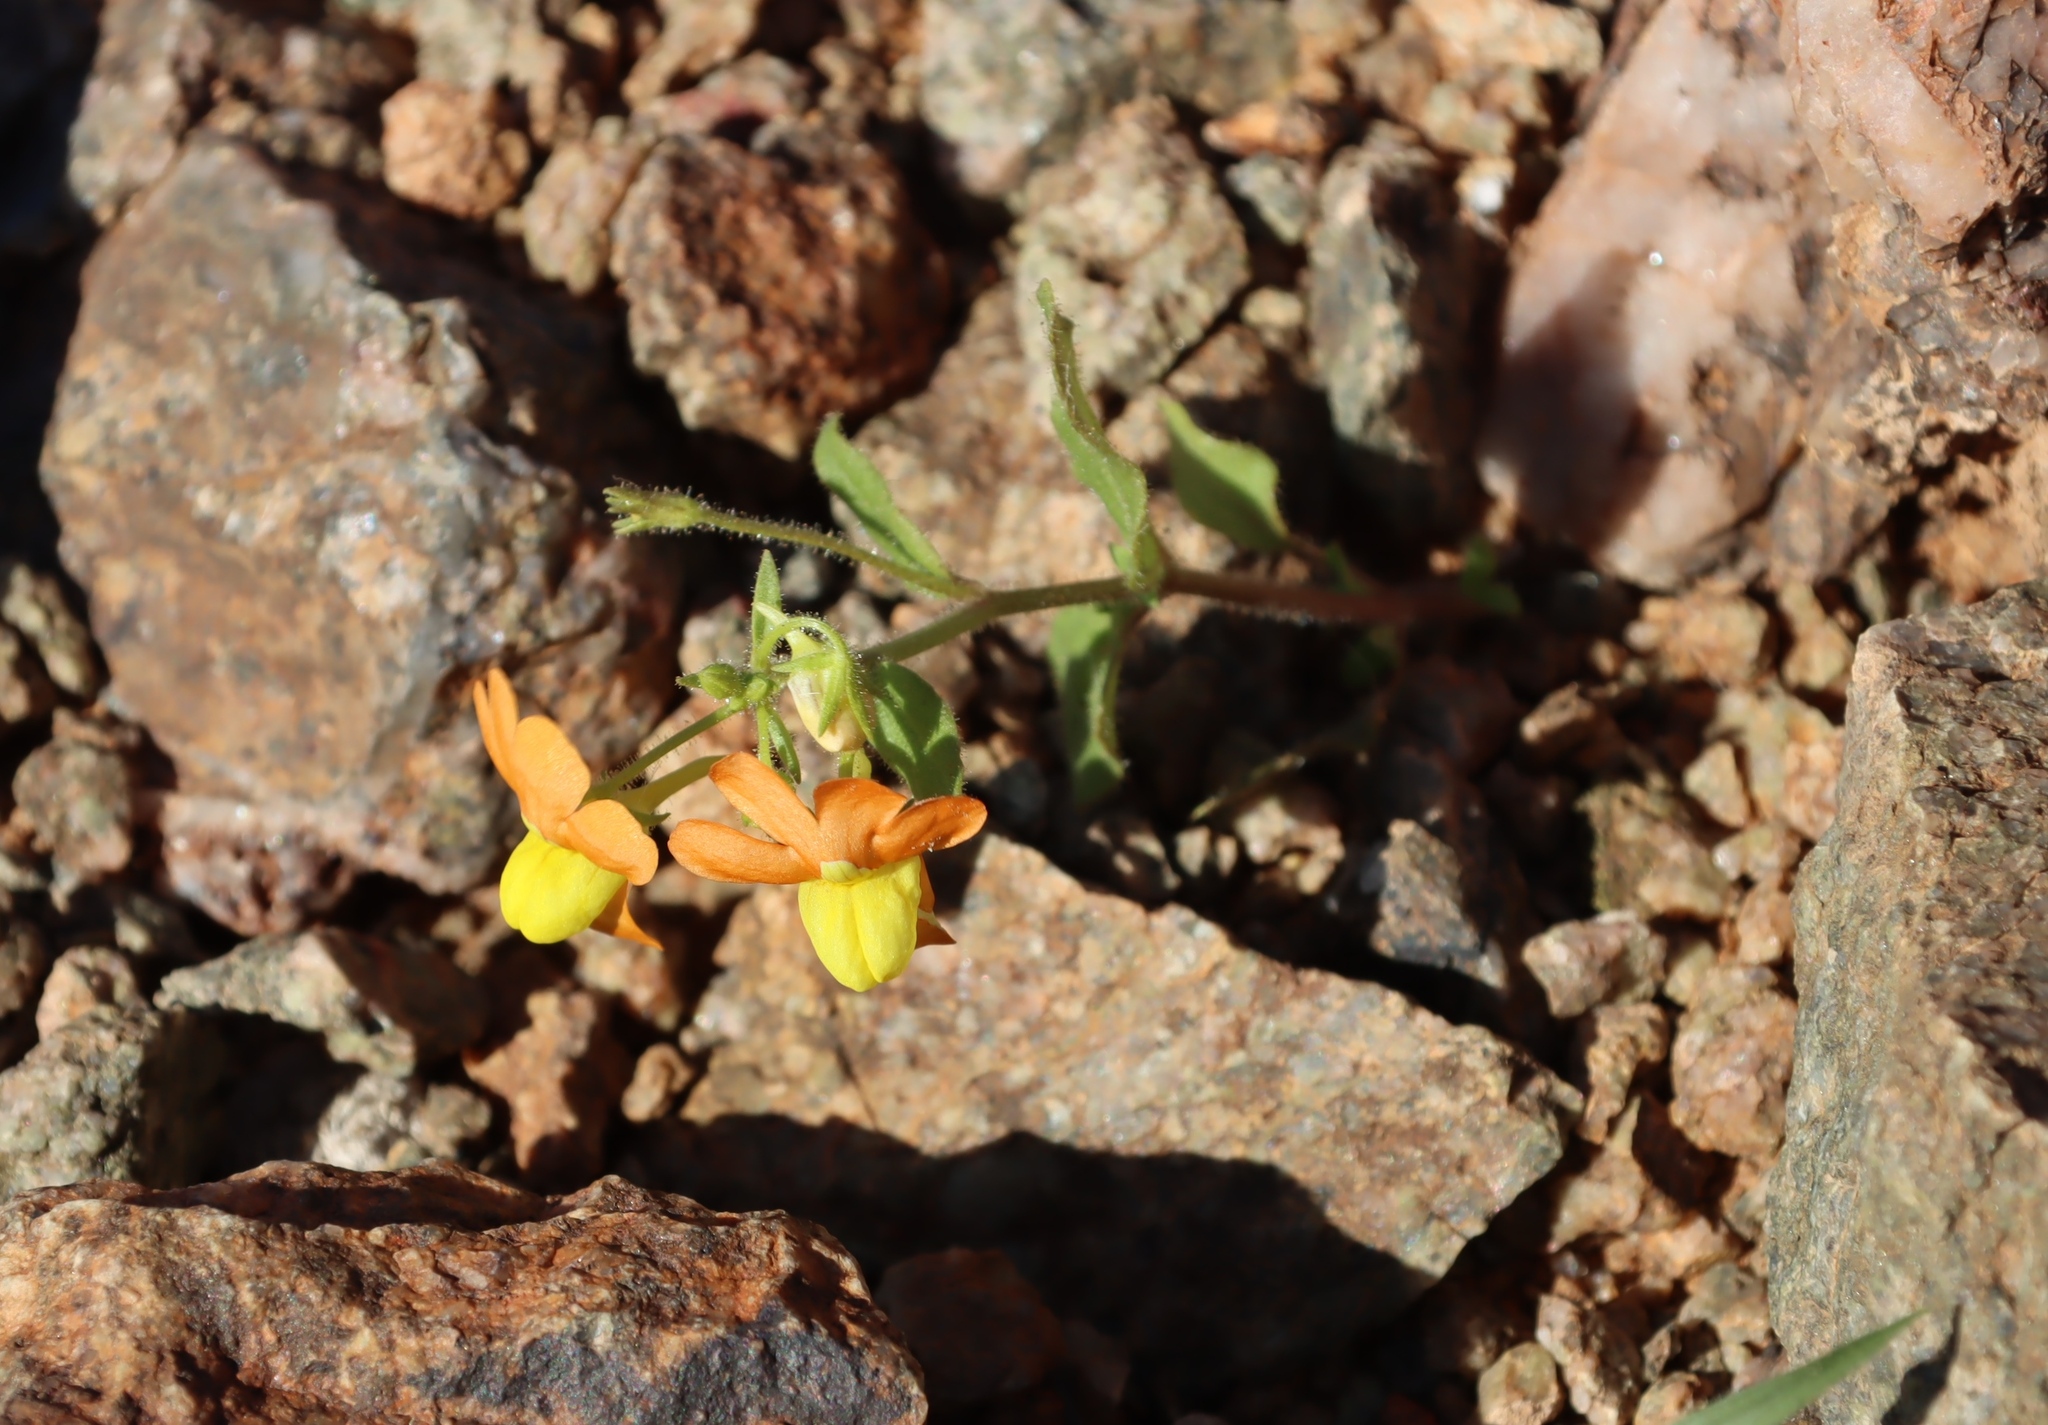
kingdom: Plantae
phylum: Tracheophyta
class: Magnoliopsida
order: Lamiales
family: Scrophulariaceae
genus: Nemesia
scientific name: Nemesia williamsonii
